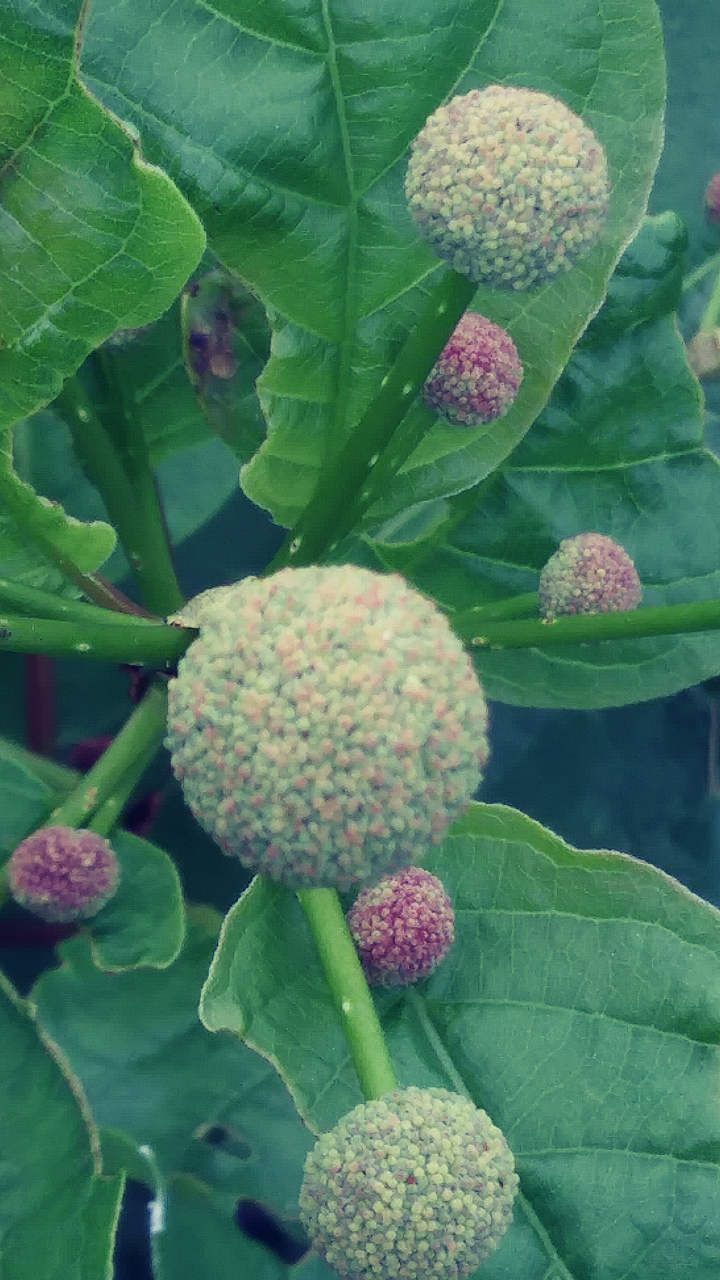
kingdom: Plantae
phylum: Tracheophyta
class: Magnoliopsida
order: Gentianales
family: Rubiaceae
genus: Cephalanthus
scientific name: Cephalanthus occidentalis
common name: Button-willow
